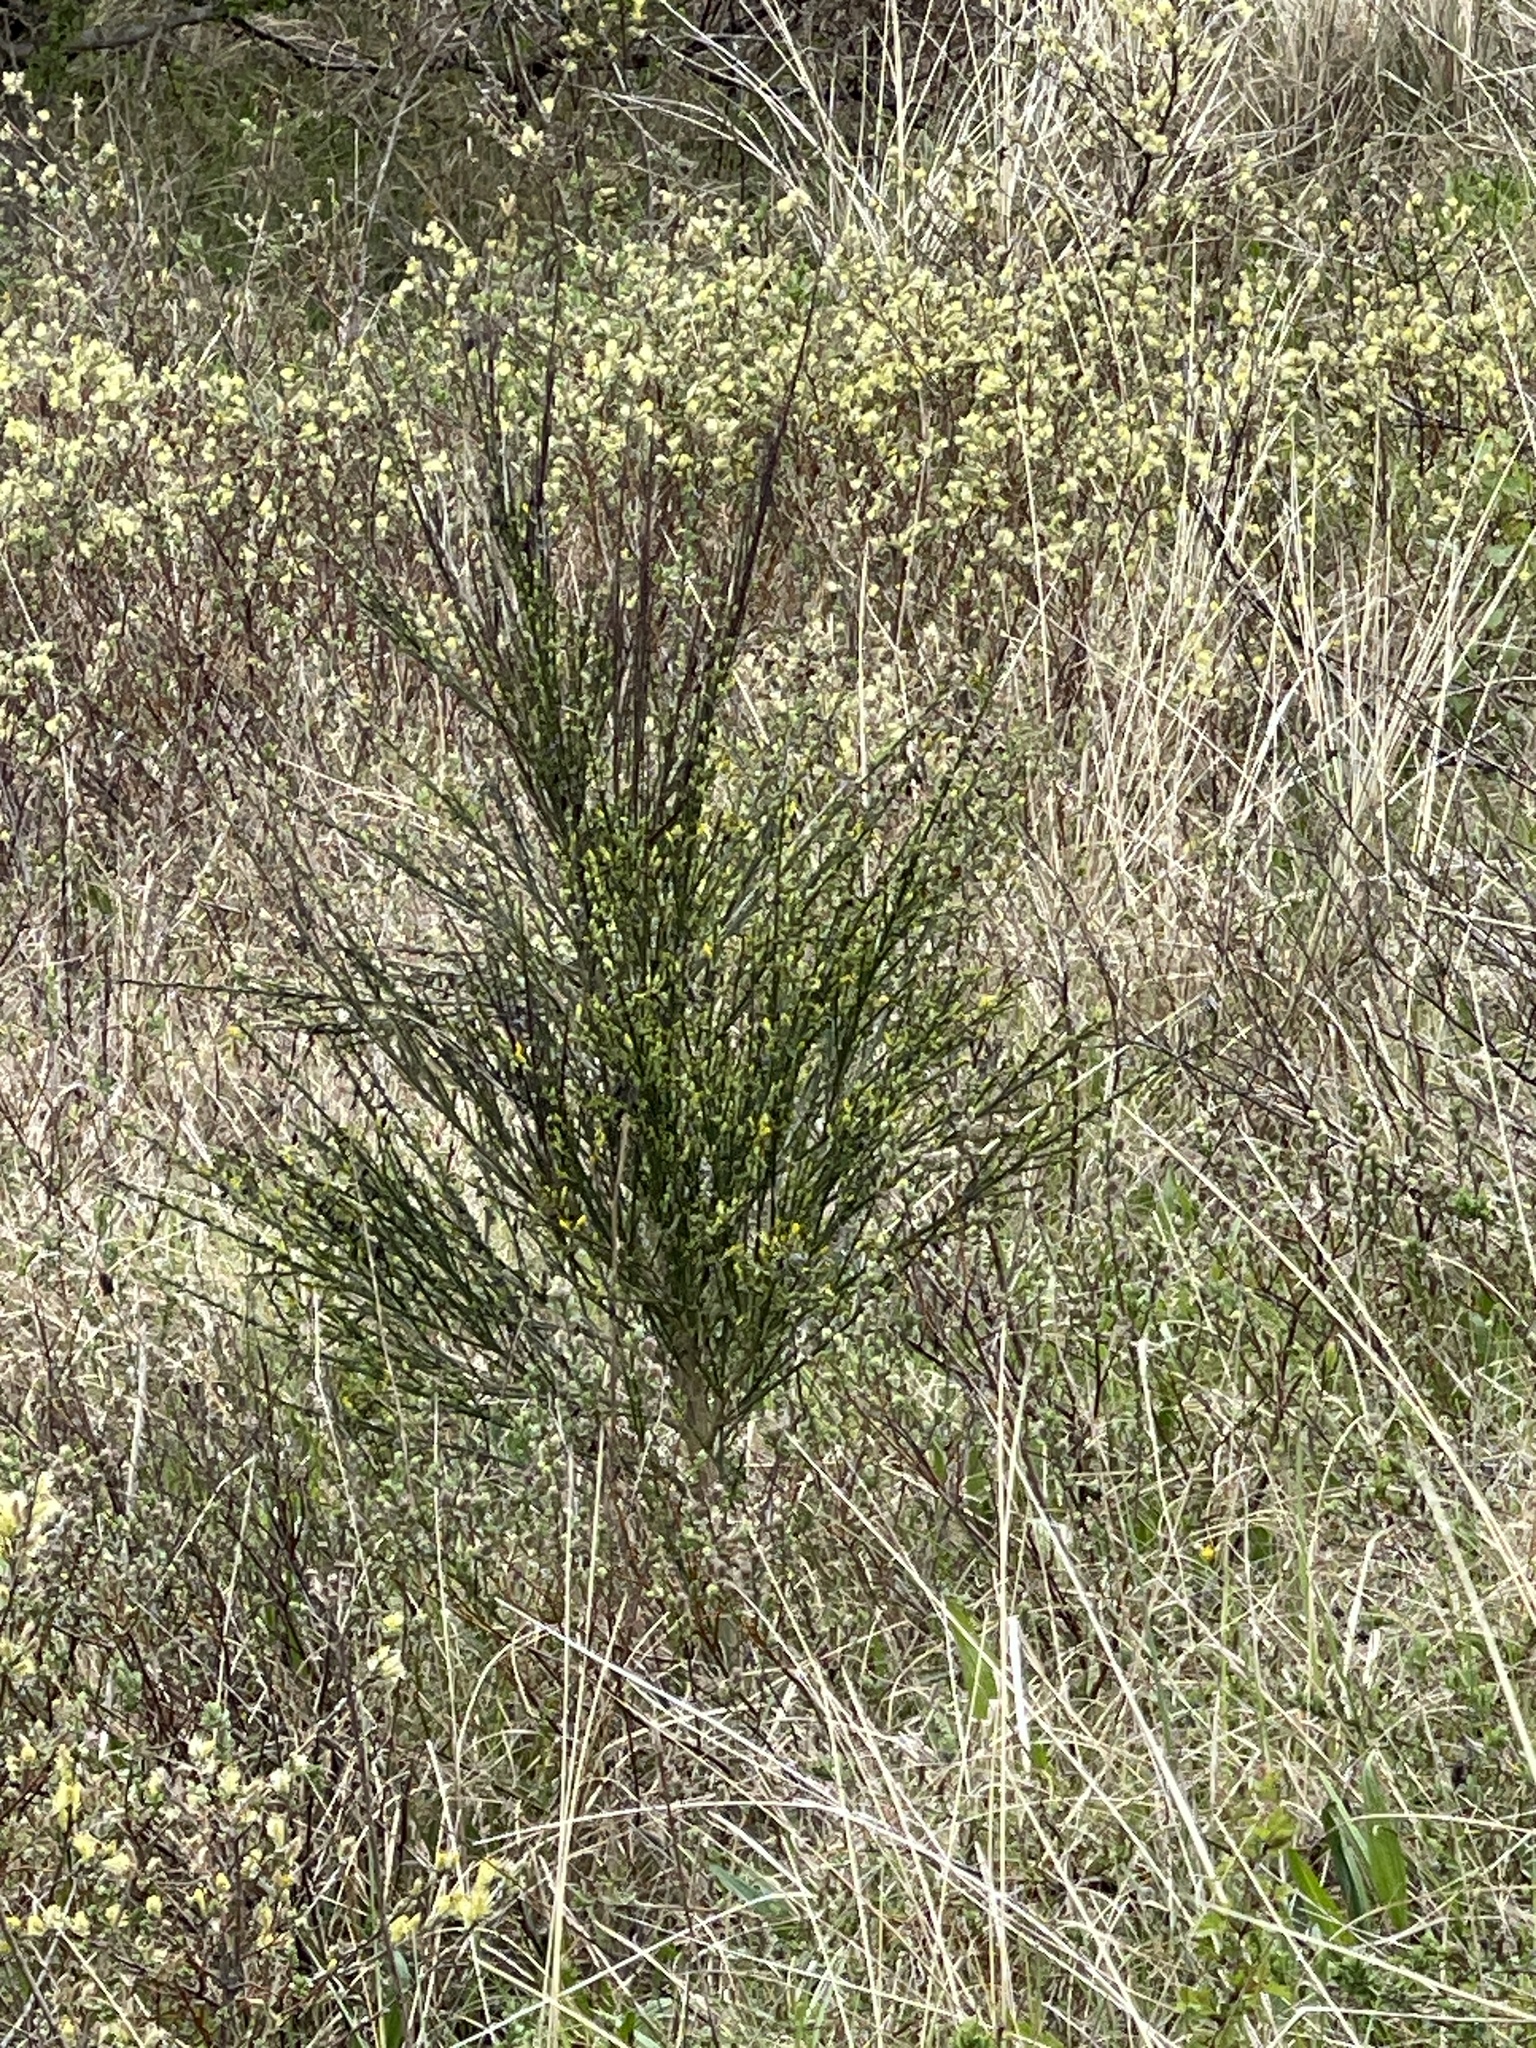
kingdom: Plantae
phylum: Tracheophyta
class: Magnoliopsida
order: Fabales
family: Fabaceae
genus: Cytisus
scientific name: Cytisus scoparius
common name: Scotch broom
